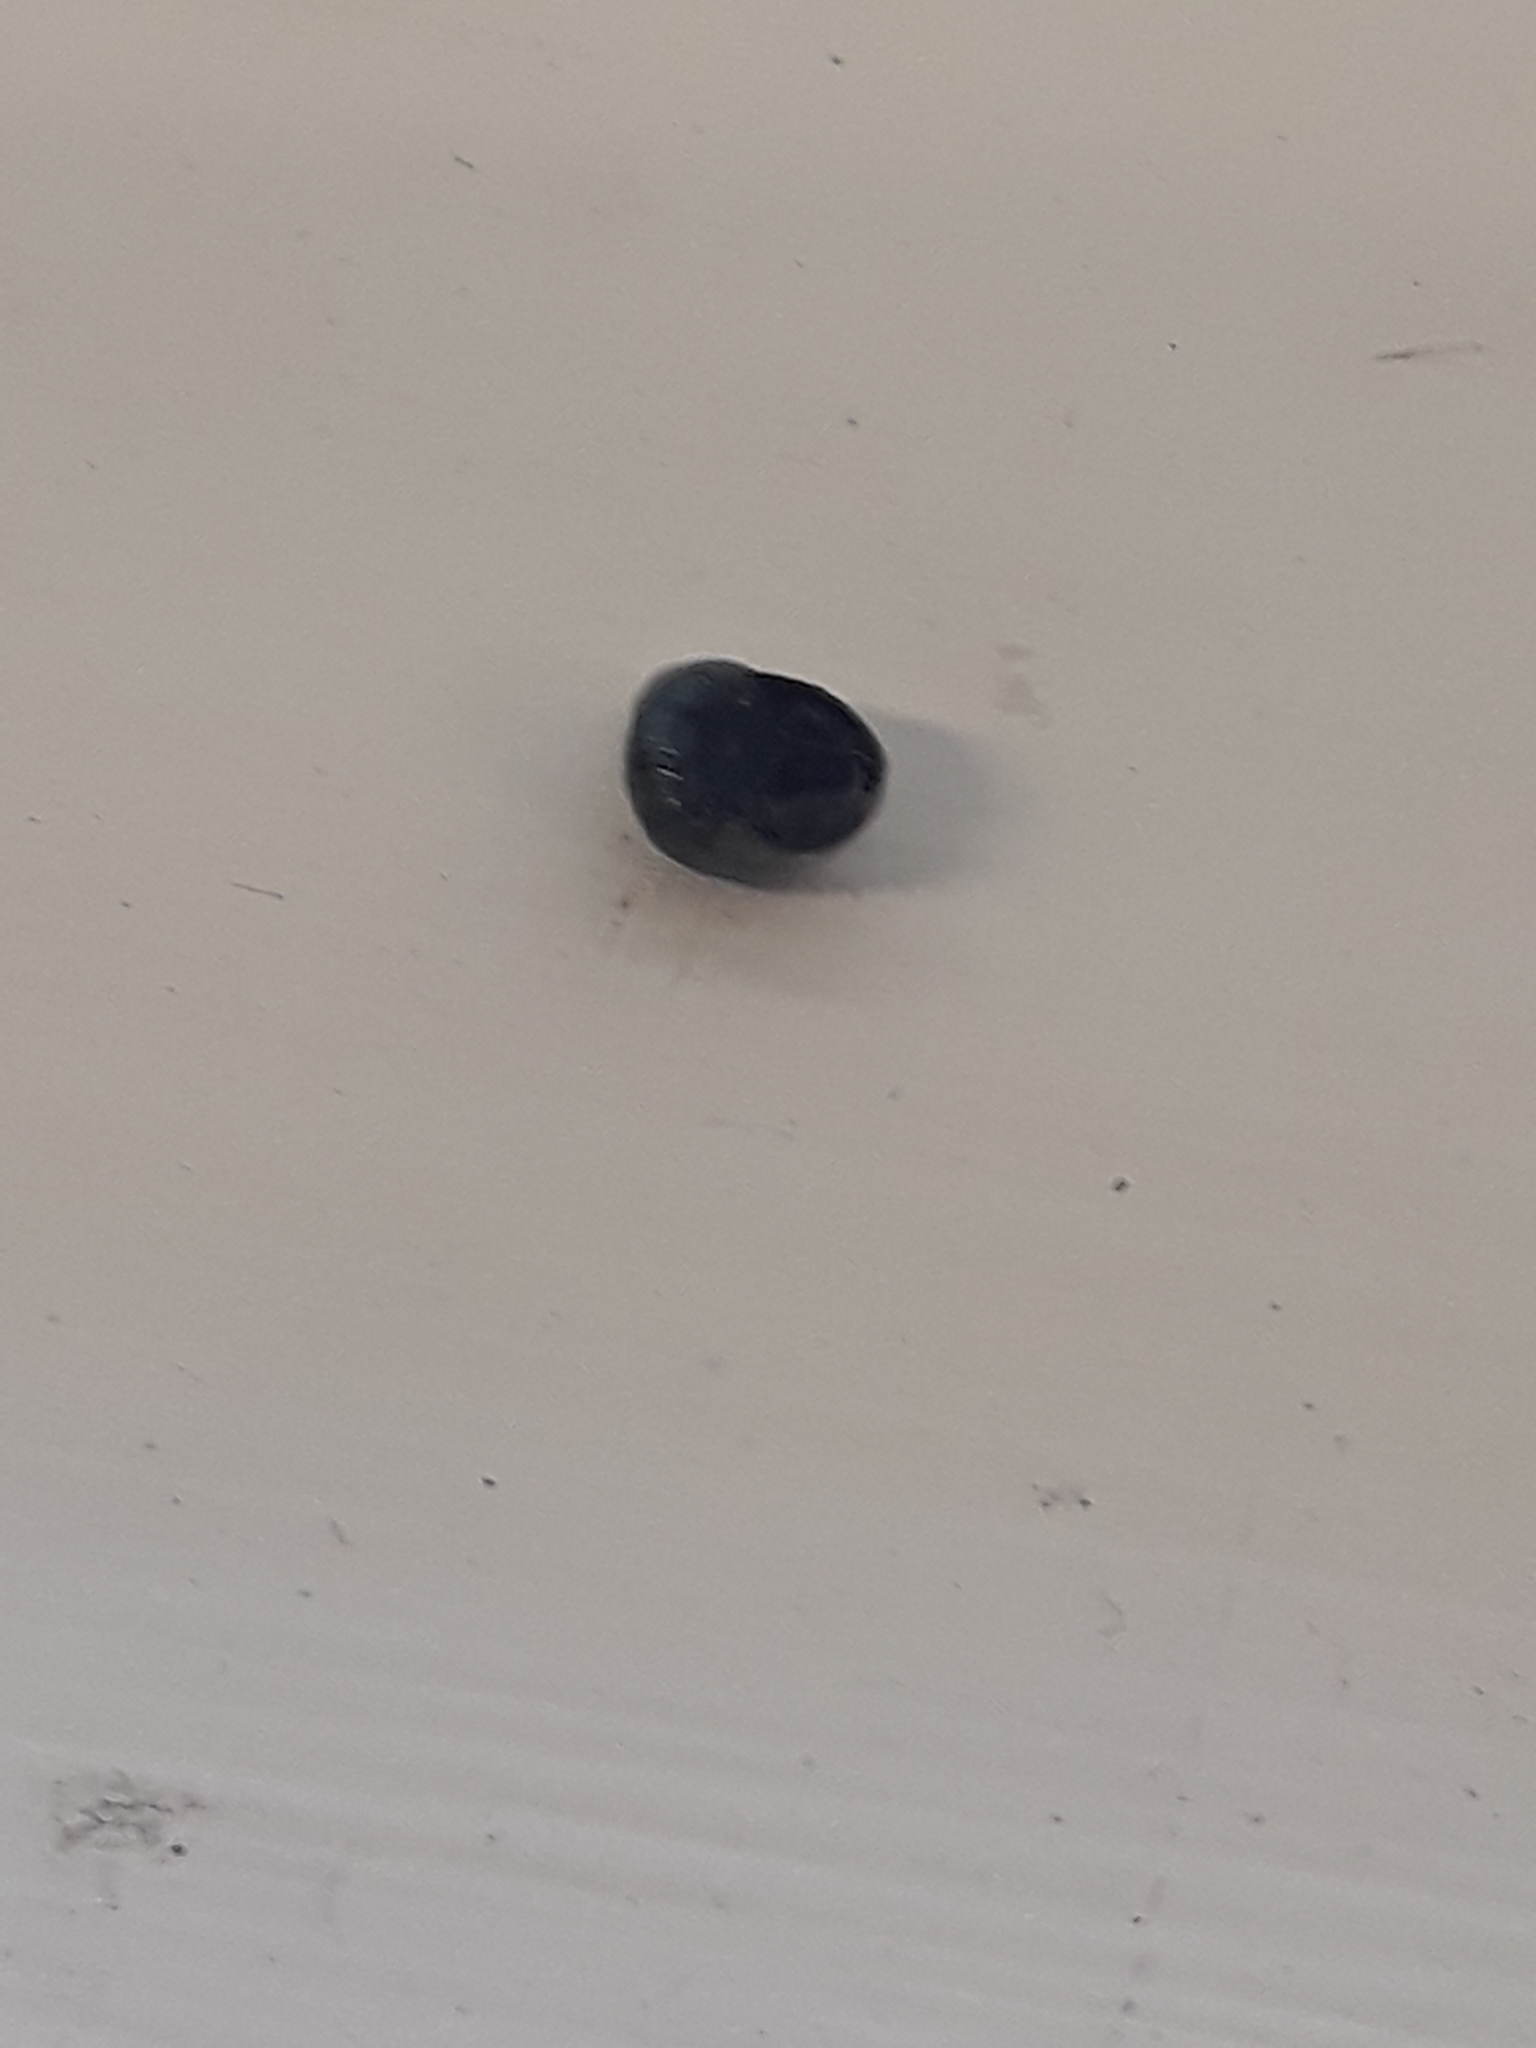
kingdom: Animalia
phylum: Mollusca
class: Gastropoda
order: Littorinimorpha
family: Littorinidae
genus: Austrolittorina
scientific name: Austrolittorina antipodum
